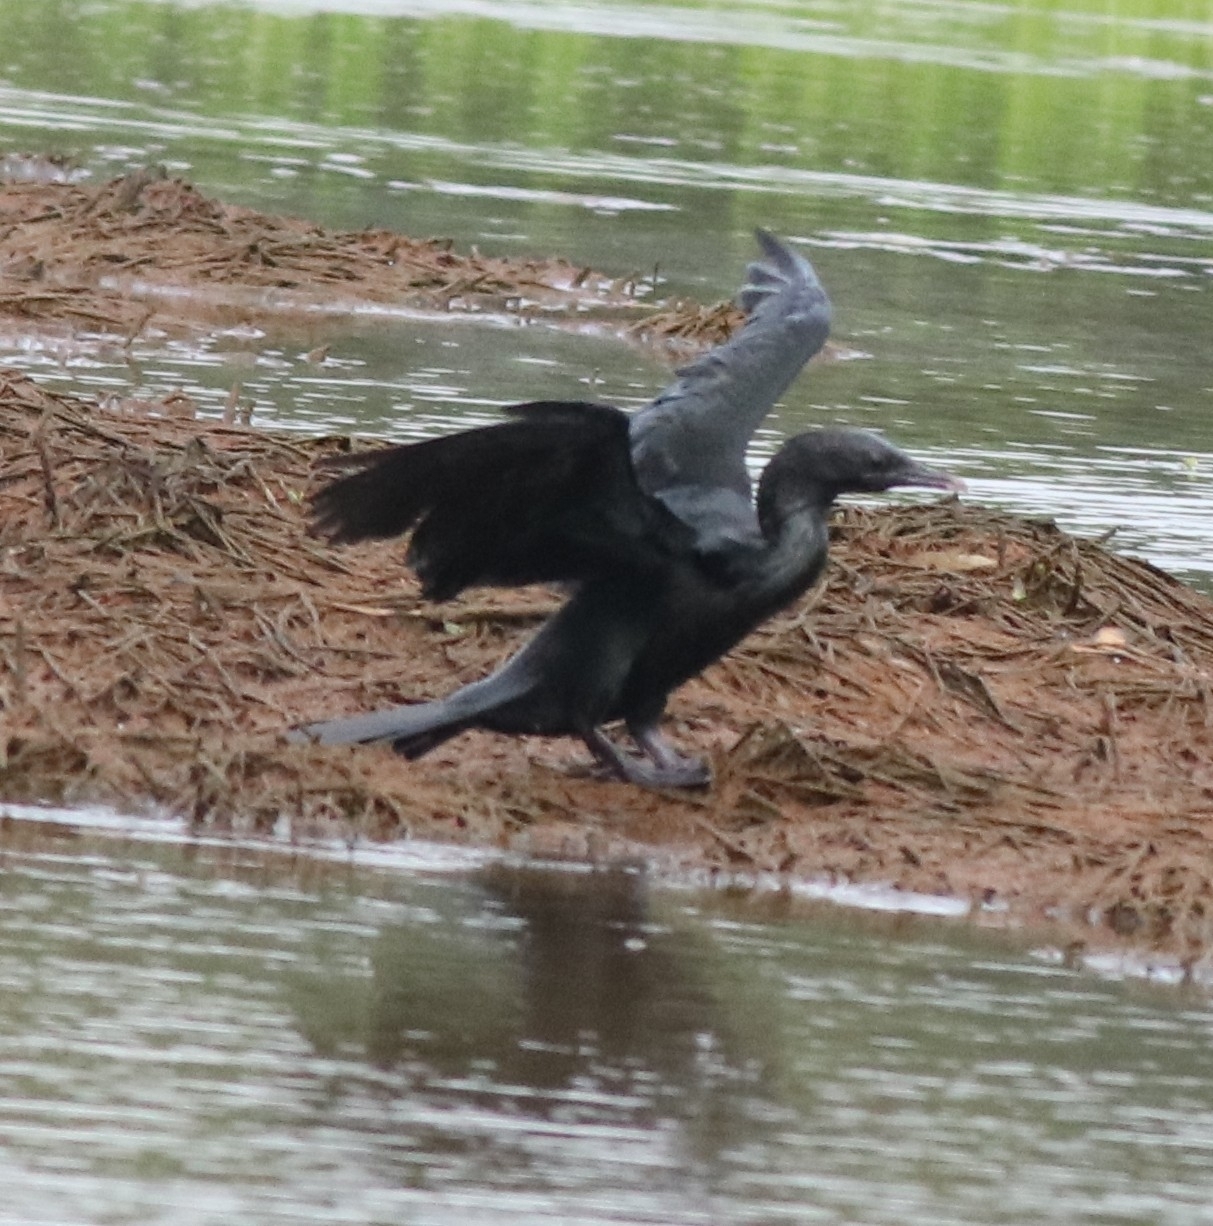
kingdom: Animalia
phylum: Chordata
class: Aves
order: Suliformes
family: Phalacrocoracidae
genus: Microcarbo
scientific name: Microcarbo niger
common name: Little cormorant
